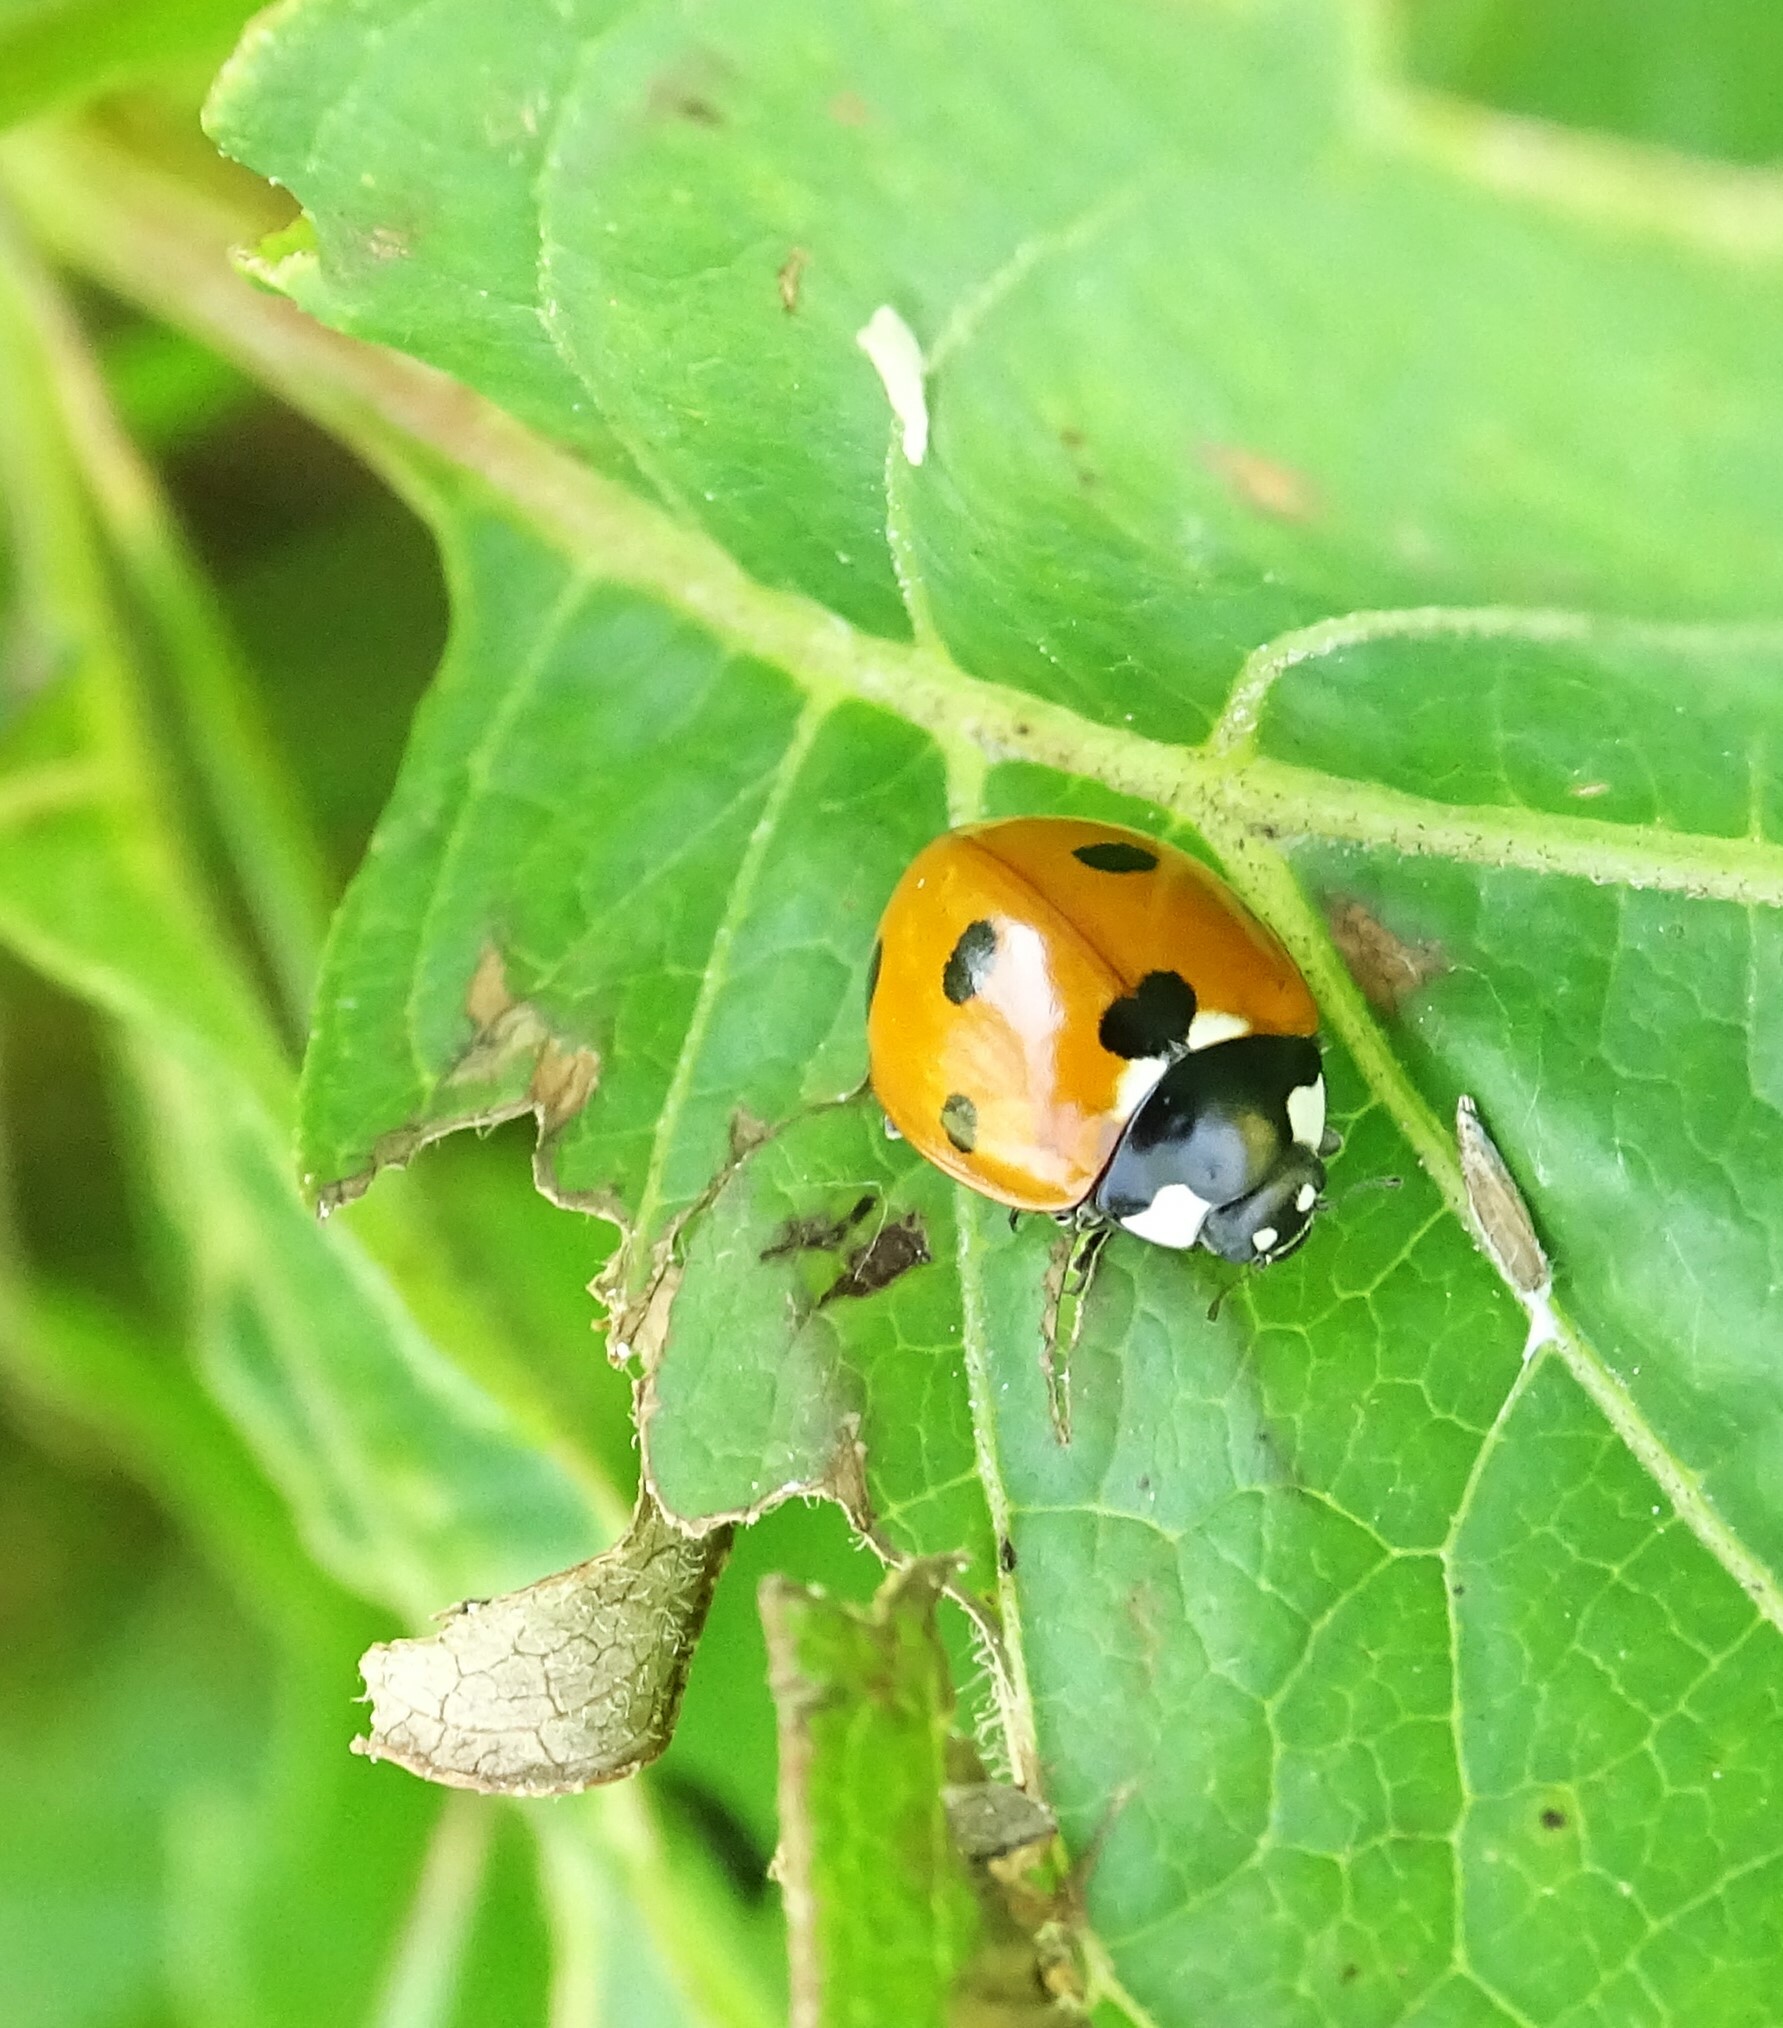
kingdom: Animalia
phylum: Arthropoda
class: Insecta
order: Coleoptera
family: Coccinellidae
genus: Coccinella
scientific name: Coccinella septempunctata
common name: Sevenspotted lady beetle
